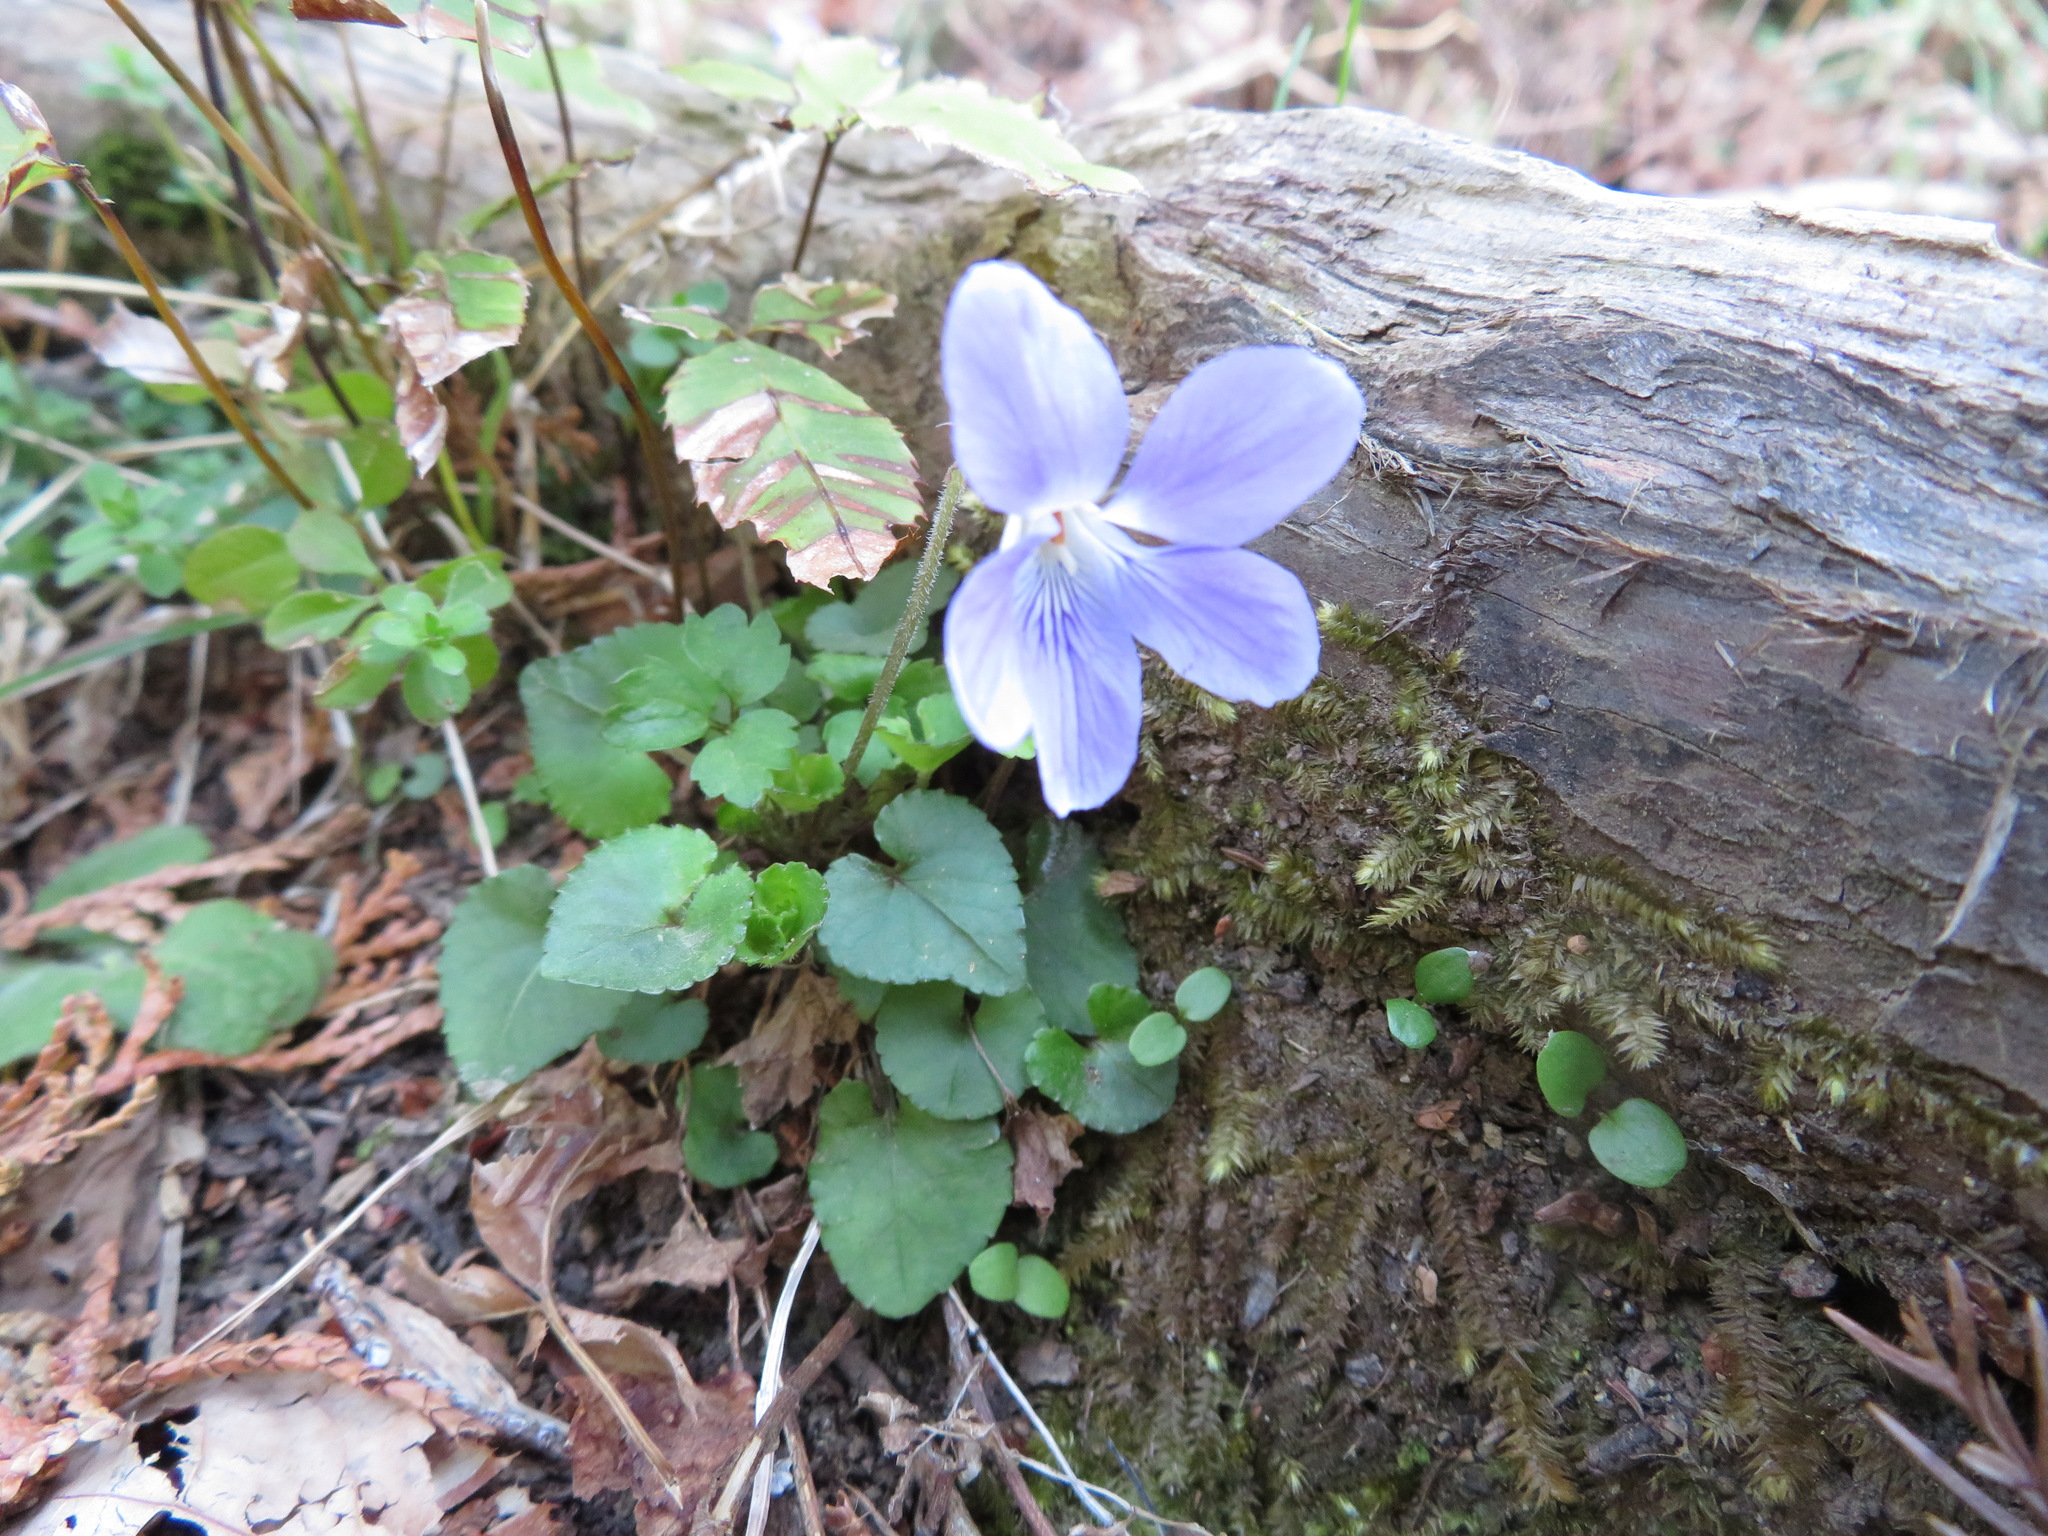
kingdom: Plantae
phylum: Tracheophyta
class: Magnoliopsida
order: Malpighiales
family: Violaceae
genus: Viola
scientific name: Viola grypoceras
